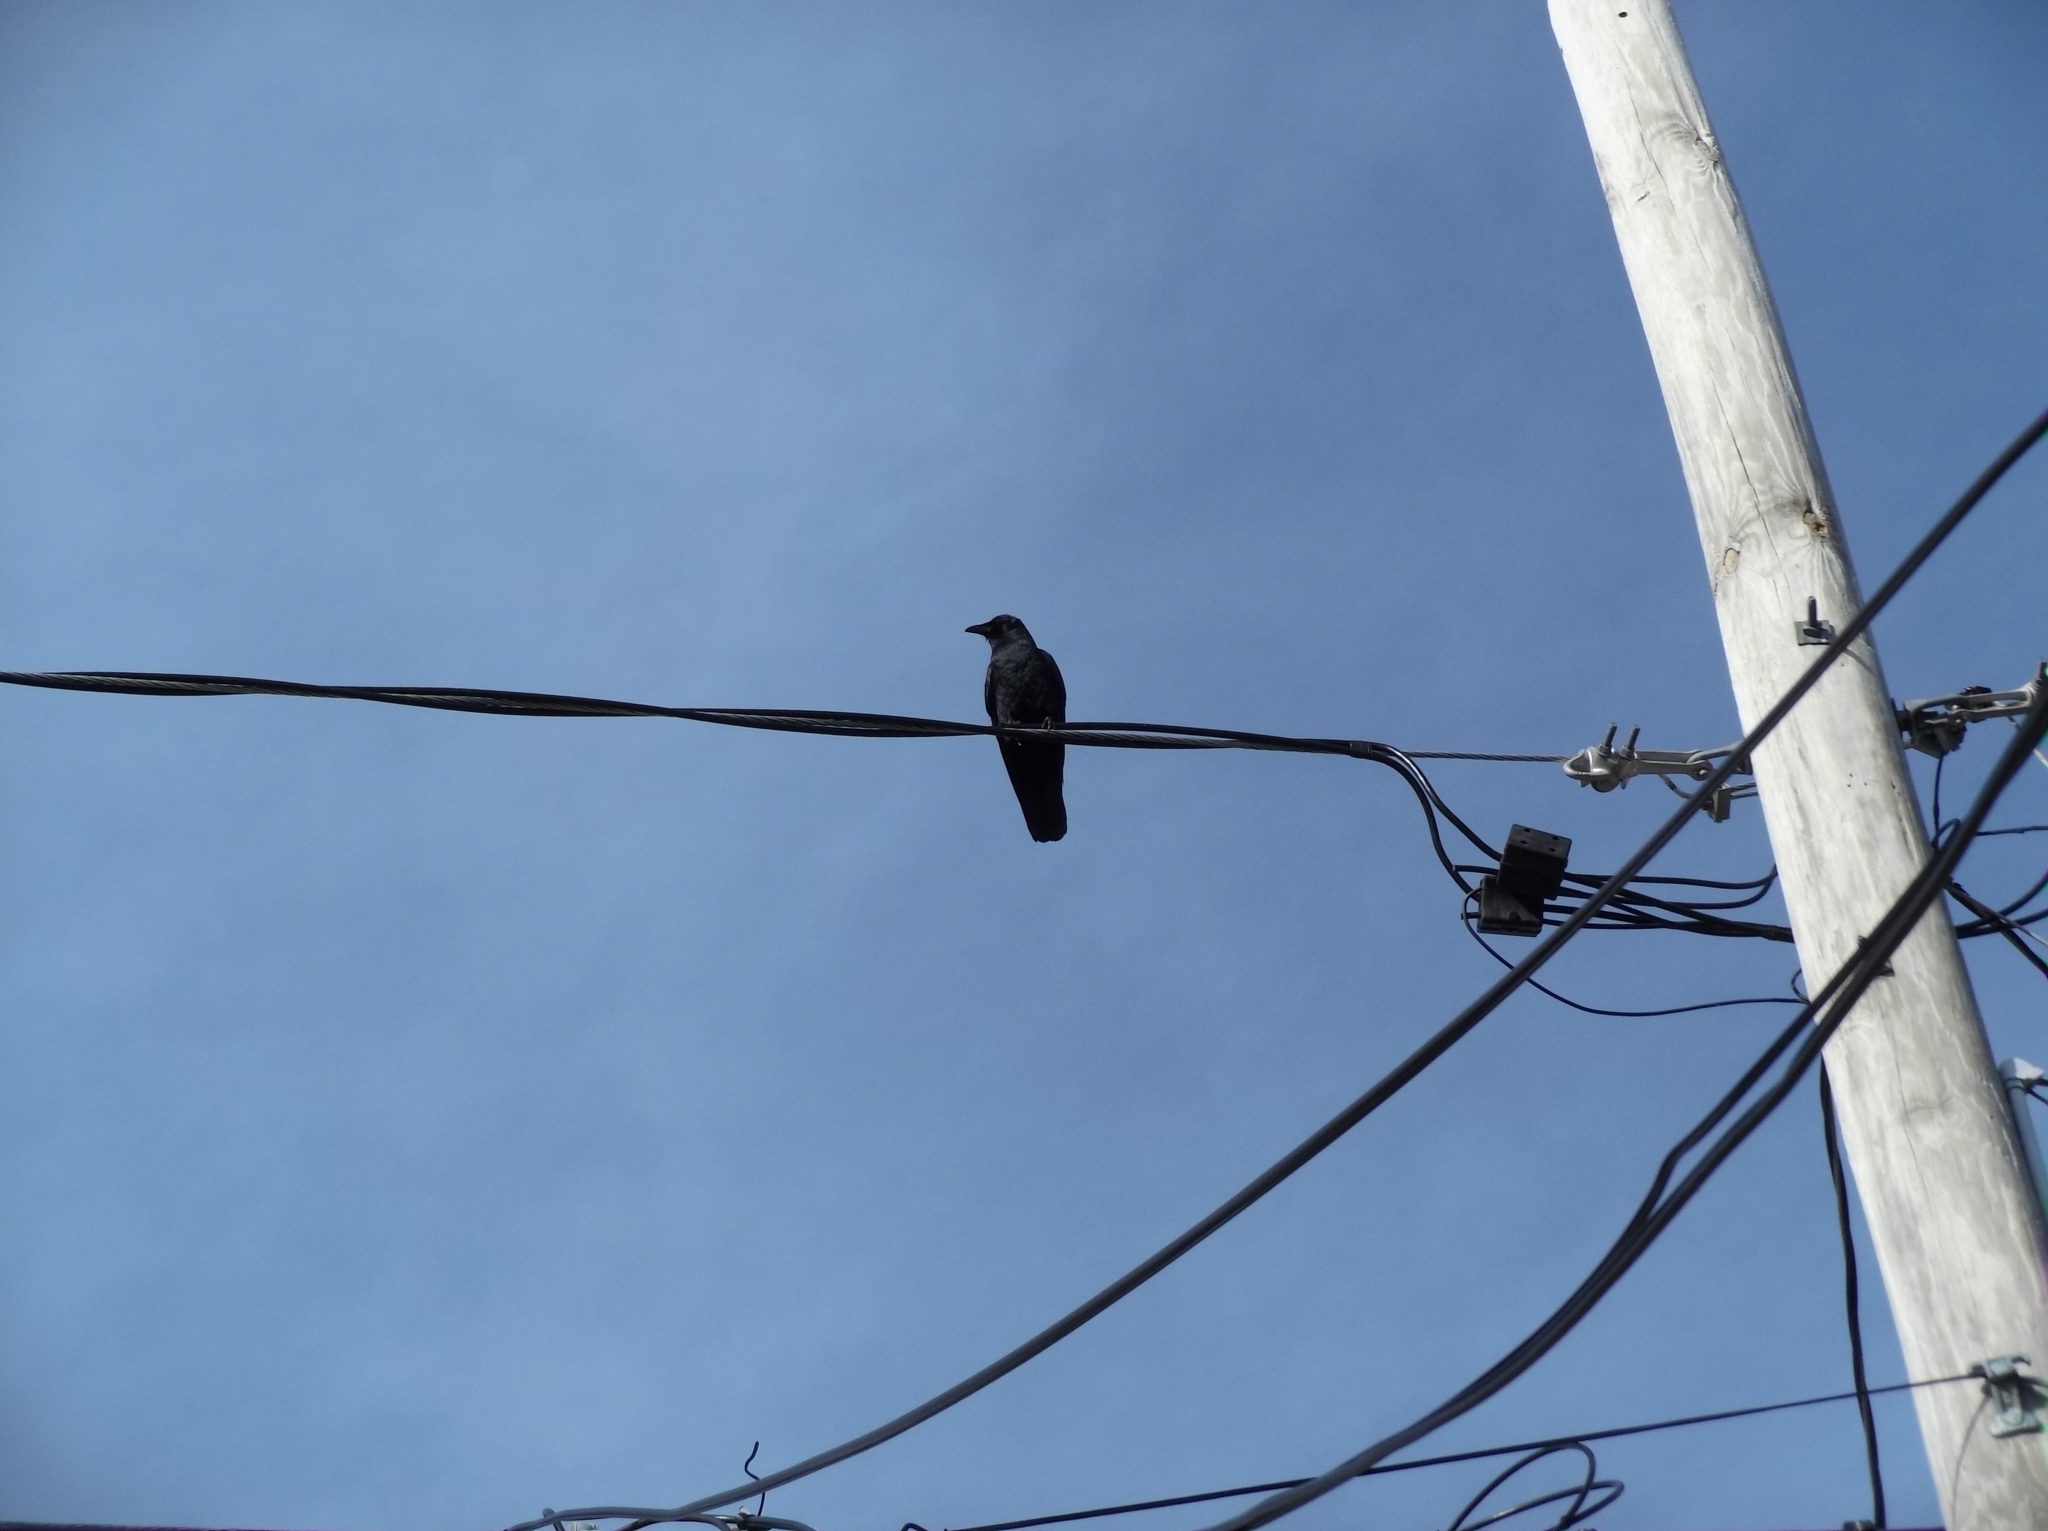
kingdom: Animalia
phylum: Chordata
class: Aves
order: Passeriformes
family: Corvidae
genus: Corvus
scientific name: Corvus ossifragus
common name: Fish crow
